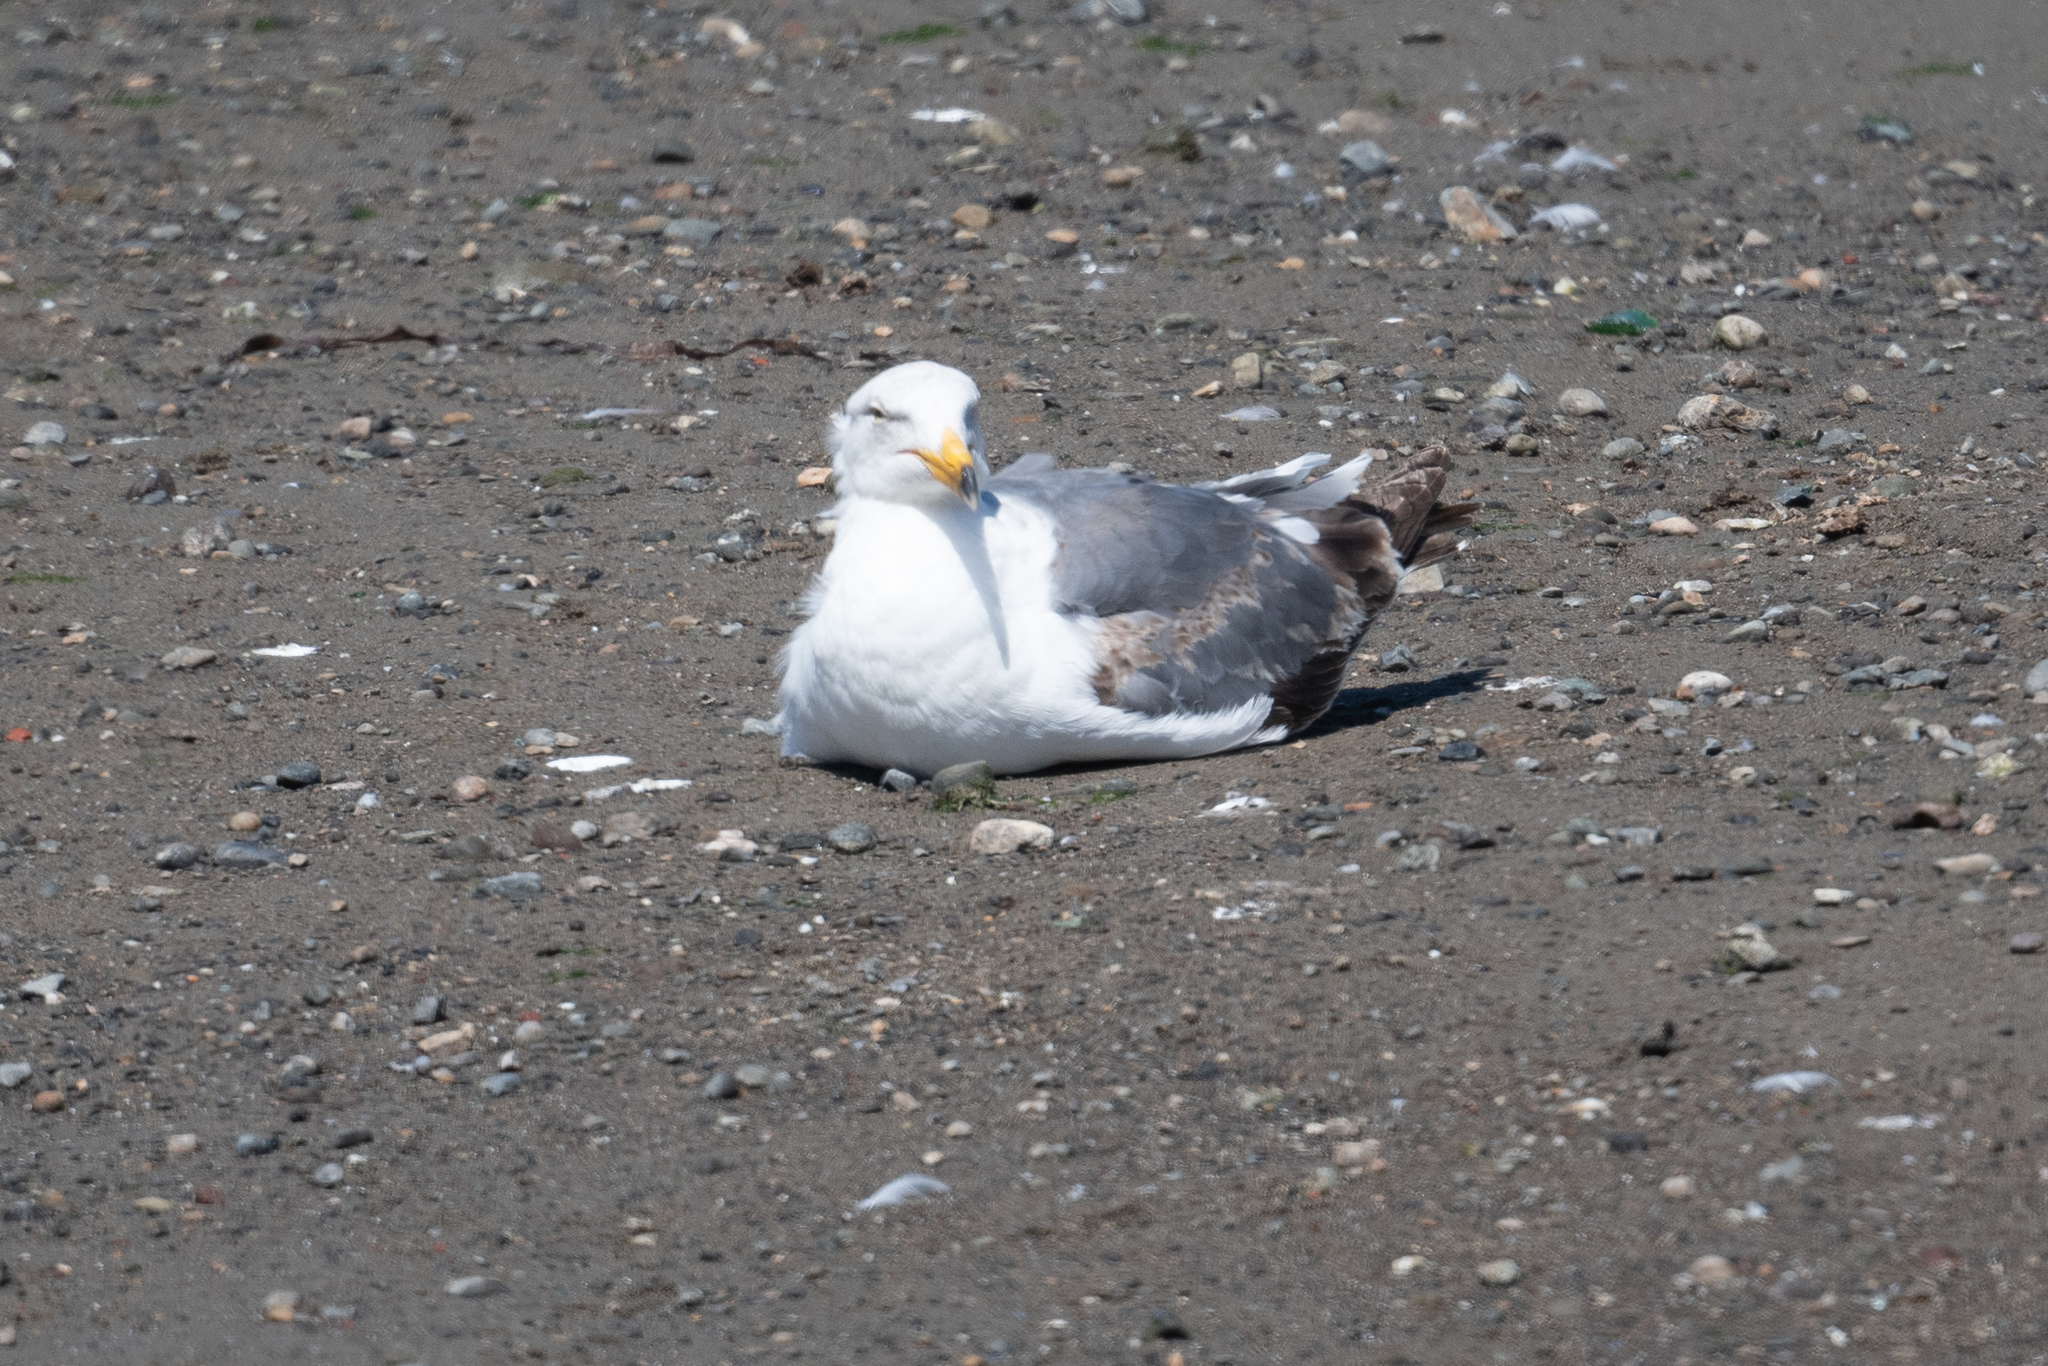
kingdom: Animalia
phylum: Chordata
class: Aves
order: Charadriiformes
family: Laridae
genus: Larus
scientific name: Larus occidentalis
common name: Western gull
